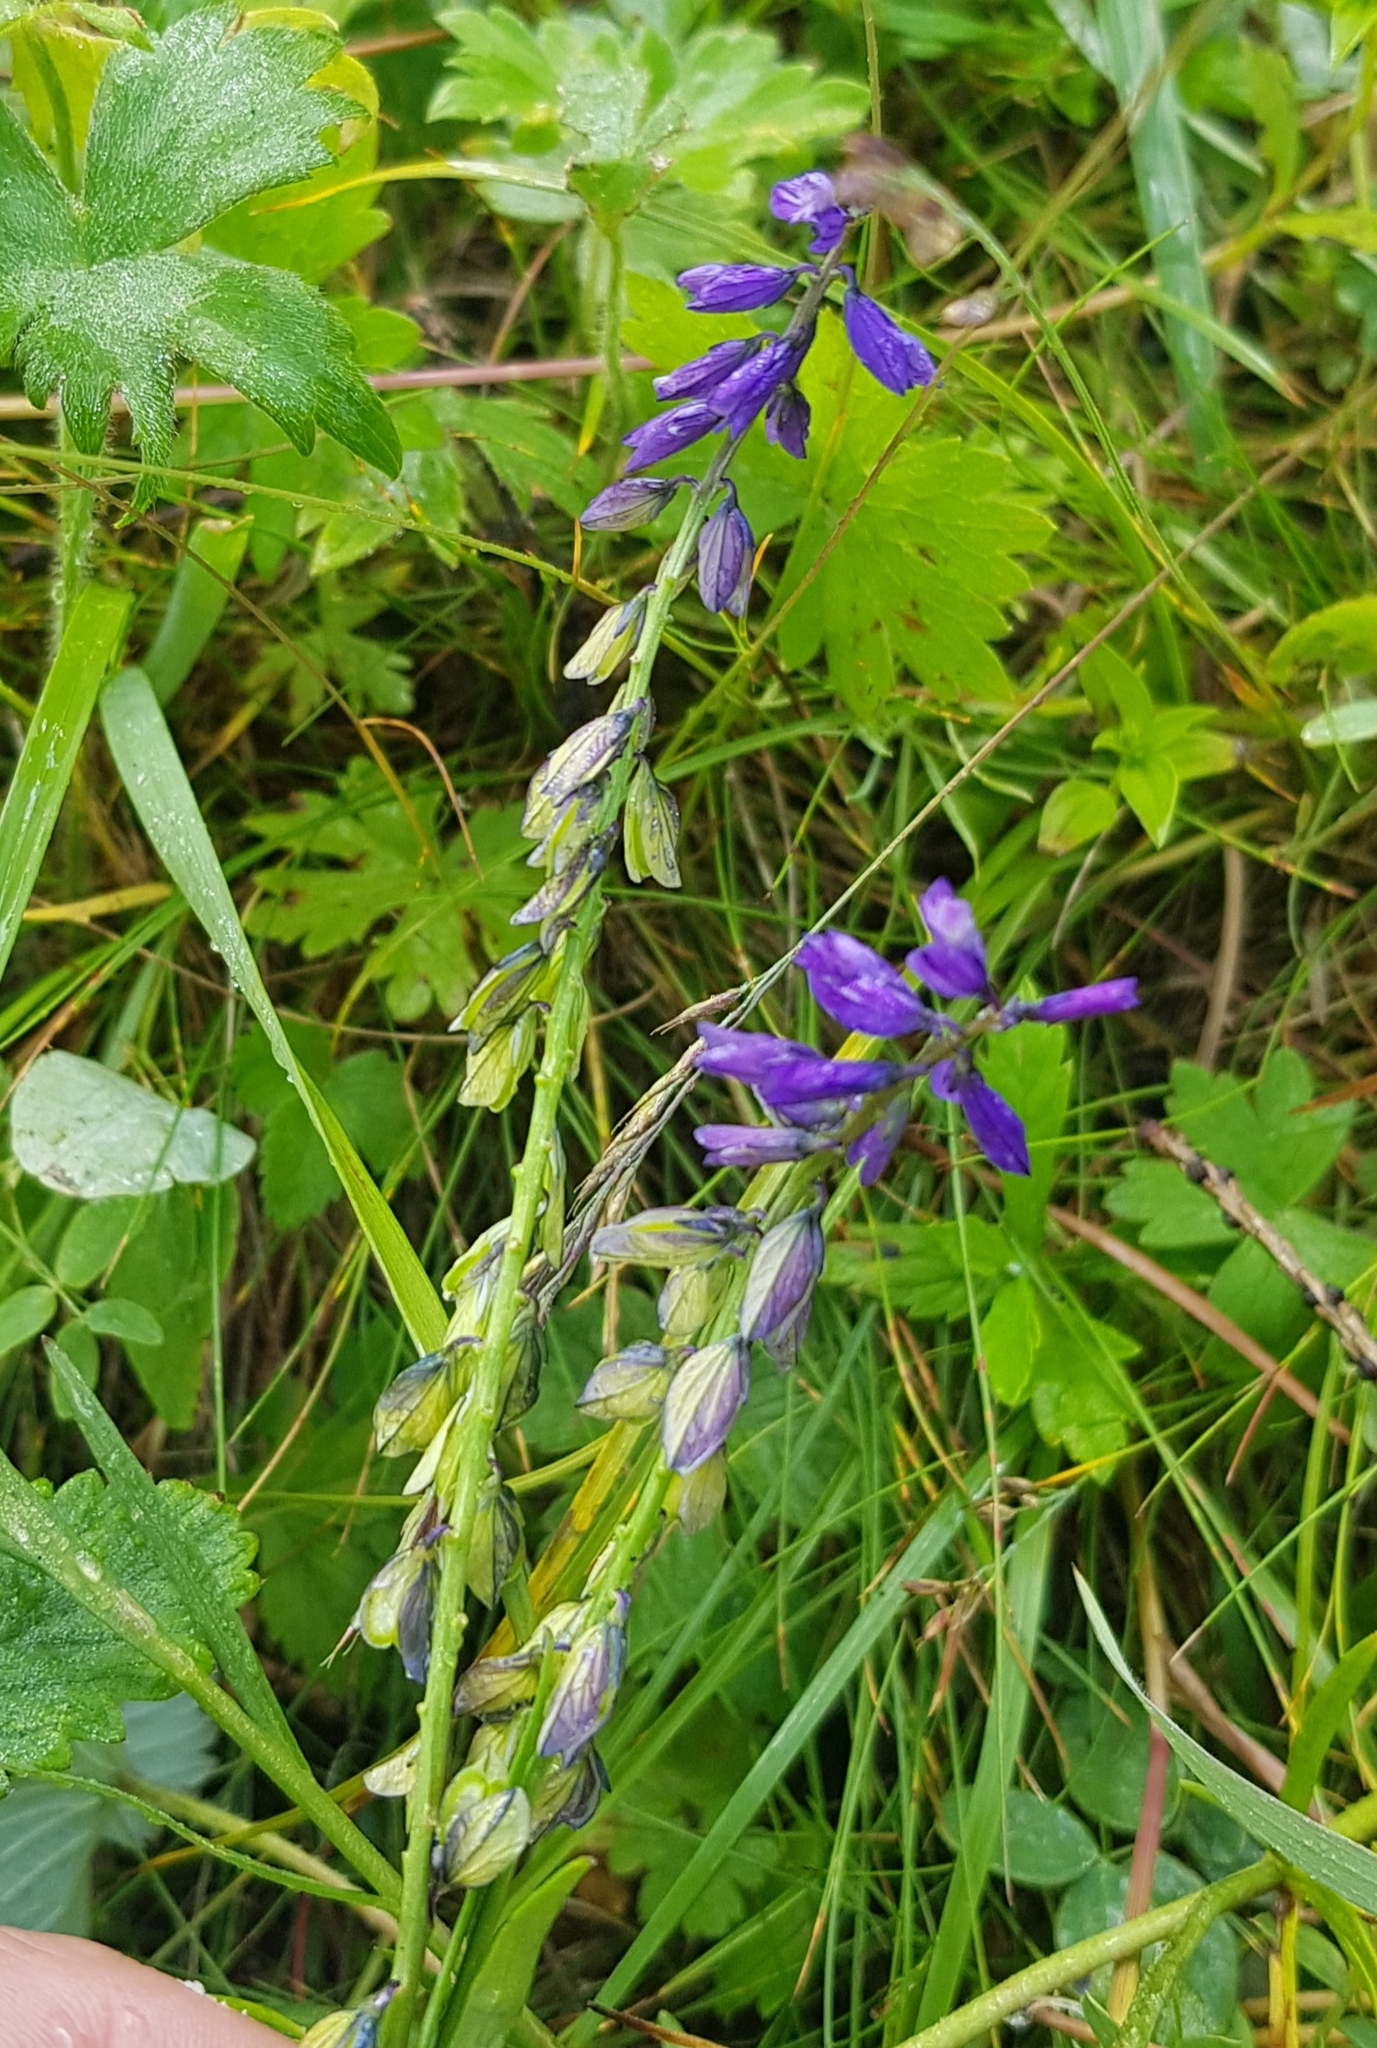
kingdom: Plantae
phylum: Tracheophyta
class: Magnoliopsida
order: Fabales
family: Polygalaceae
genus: Polygala
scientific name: Polygala comosa
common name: Tufted milkwort
